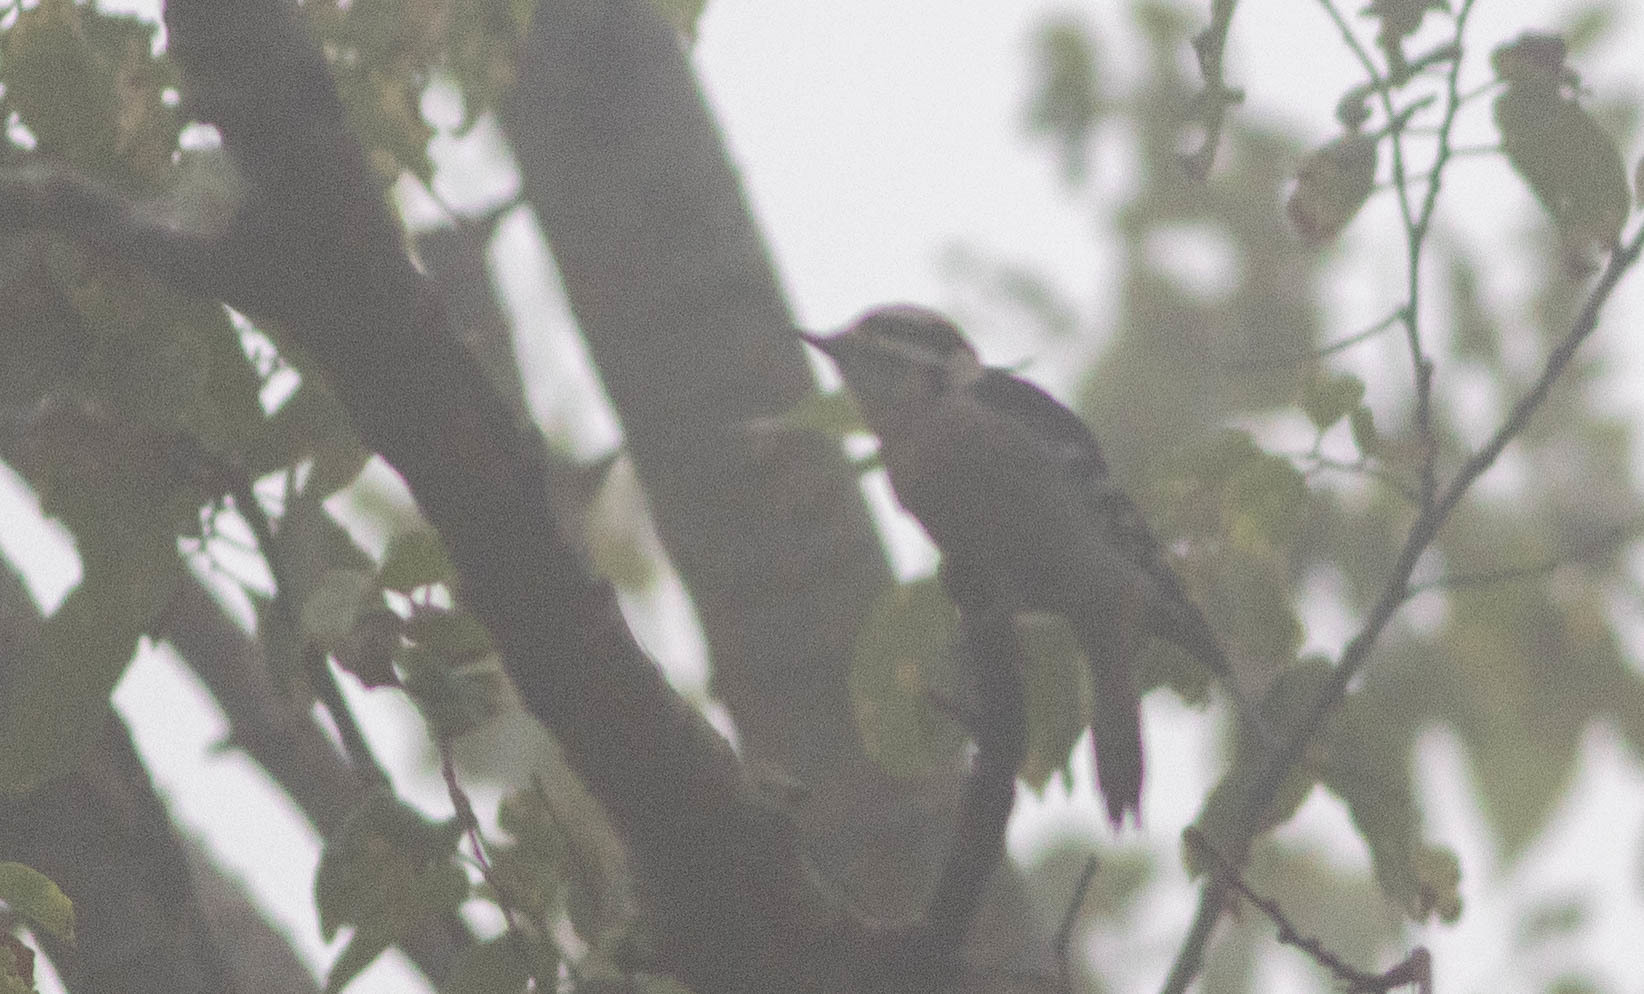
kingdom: Animalia
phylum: Chordata
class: Aves
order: Piciformes
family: Picidae
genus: Dryobates
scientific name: Dryobates pubescens
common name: Downy woodpecker
